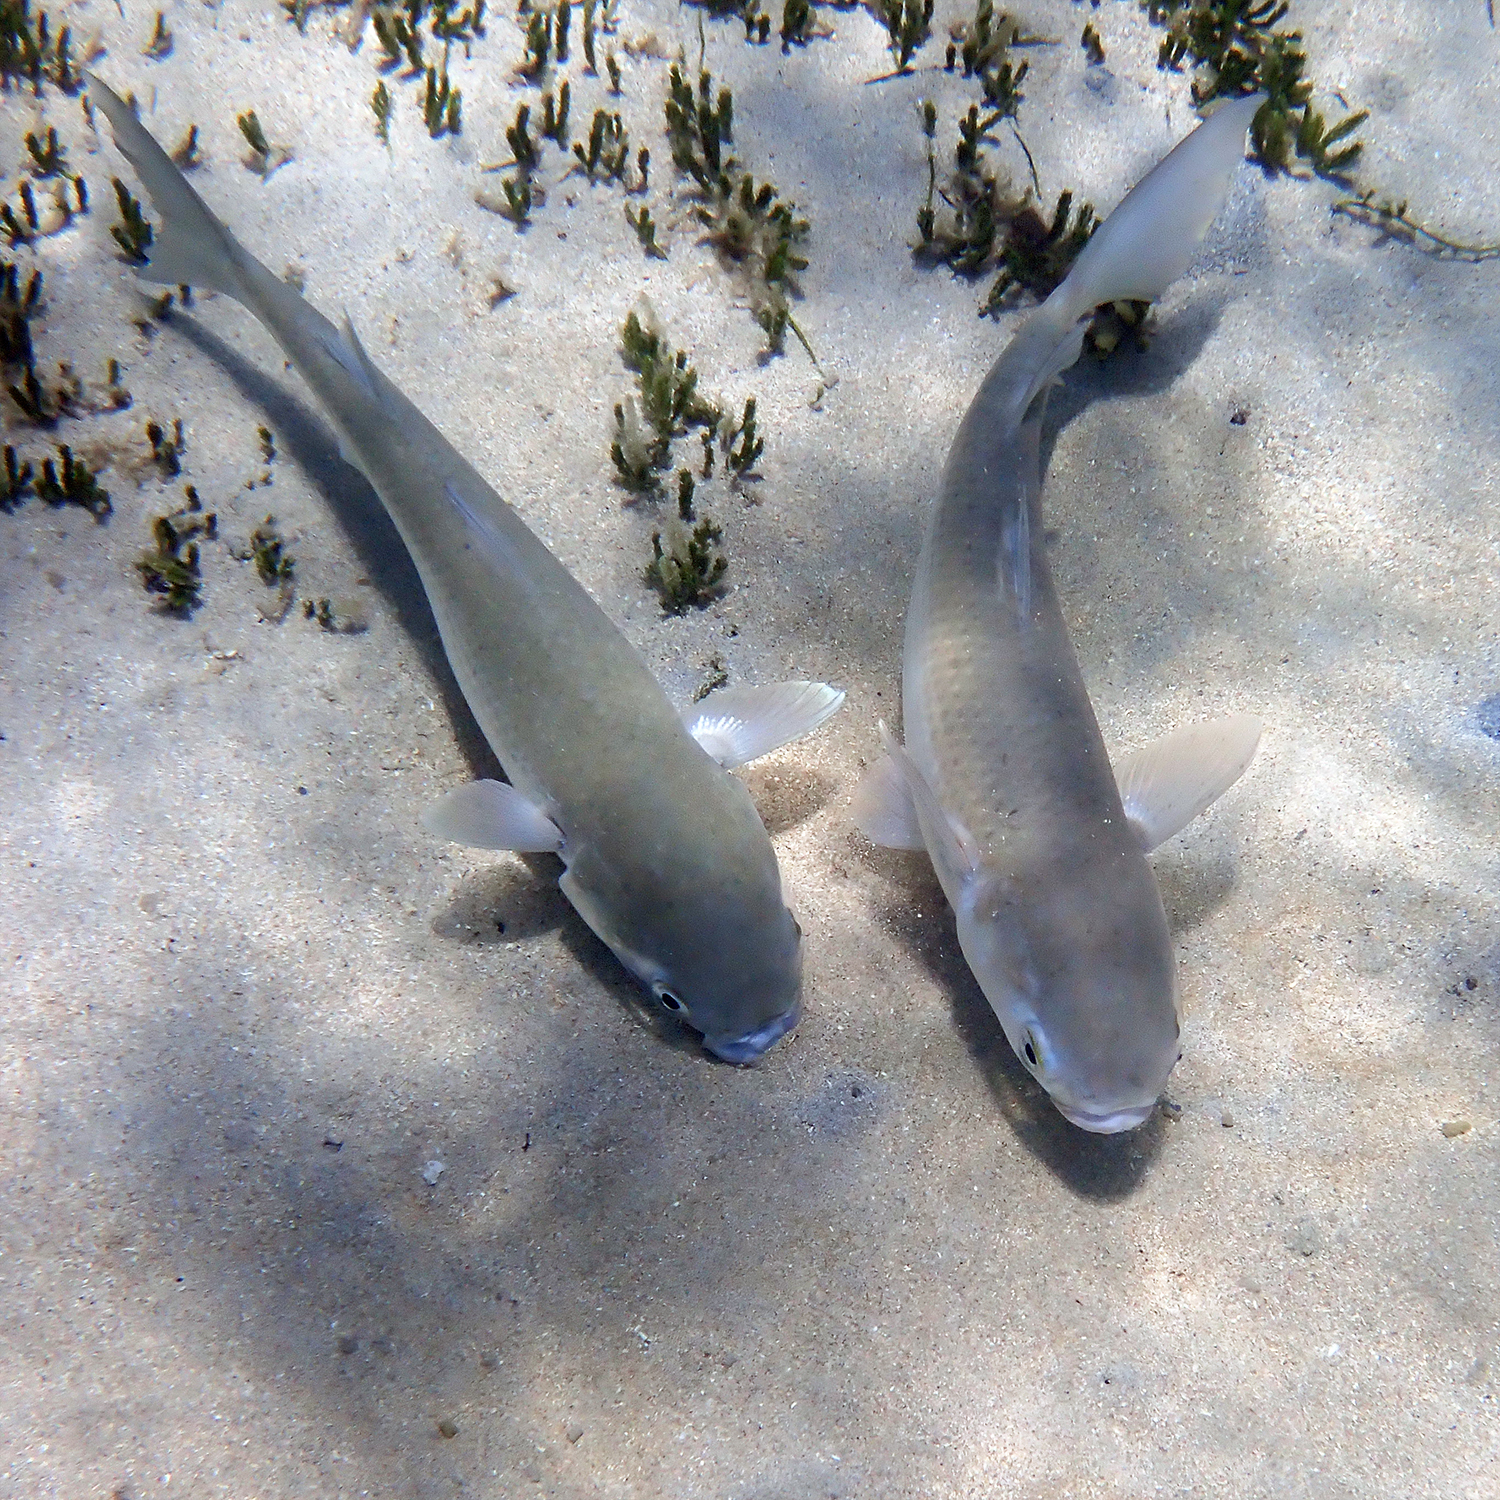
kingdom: Animalia
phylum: Chordata
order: Mugiliformes
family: Mugilidae
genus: Mugil
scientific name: Mugil cephalus
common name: Grey mullet
